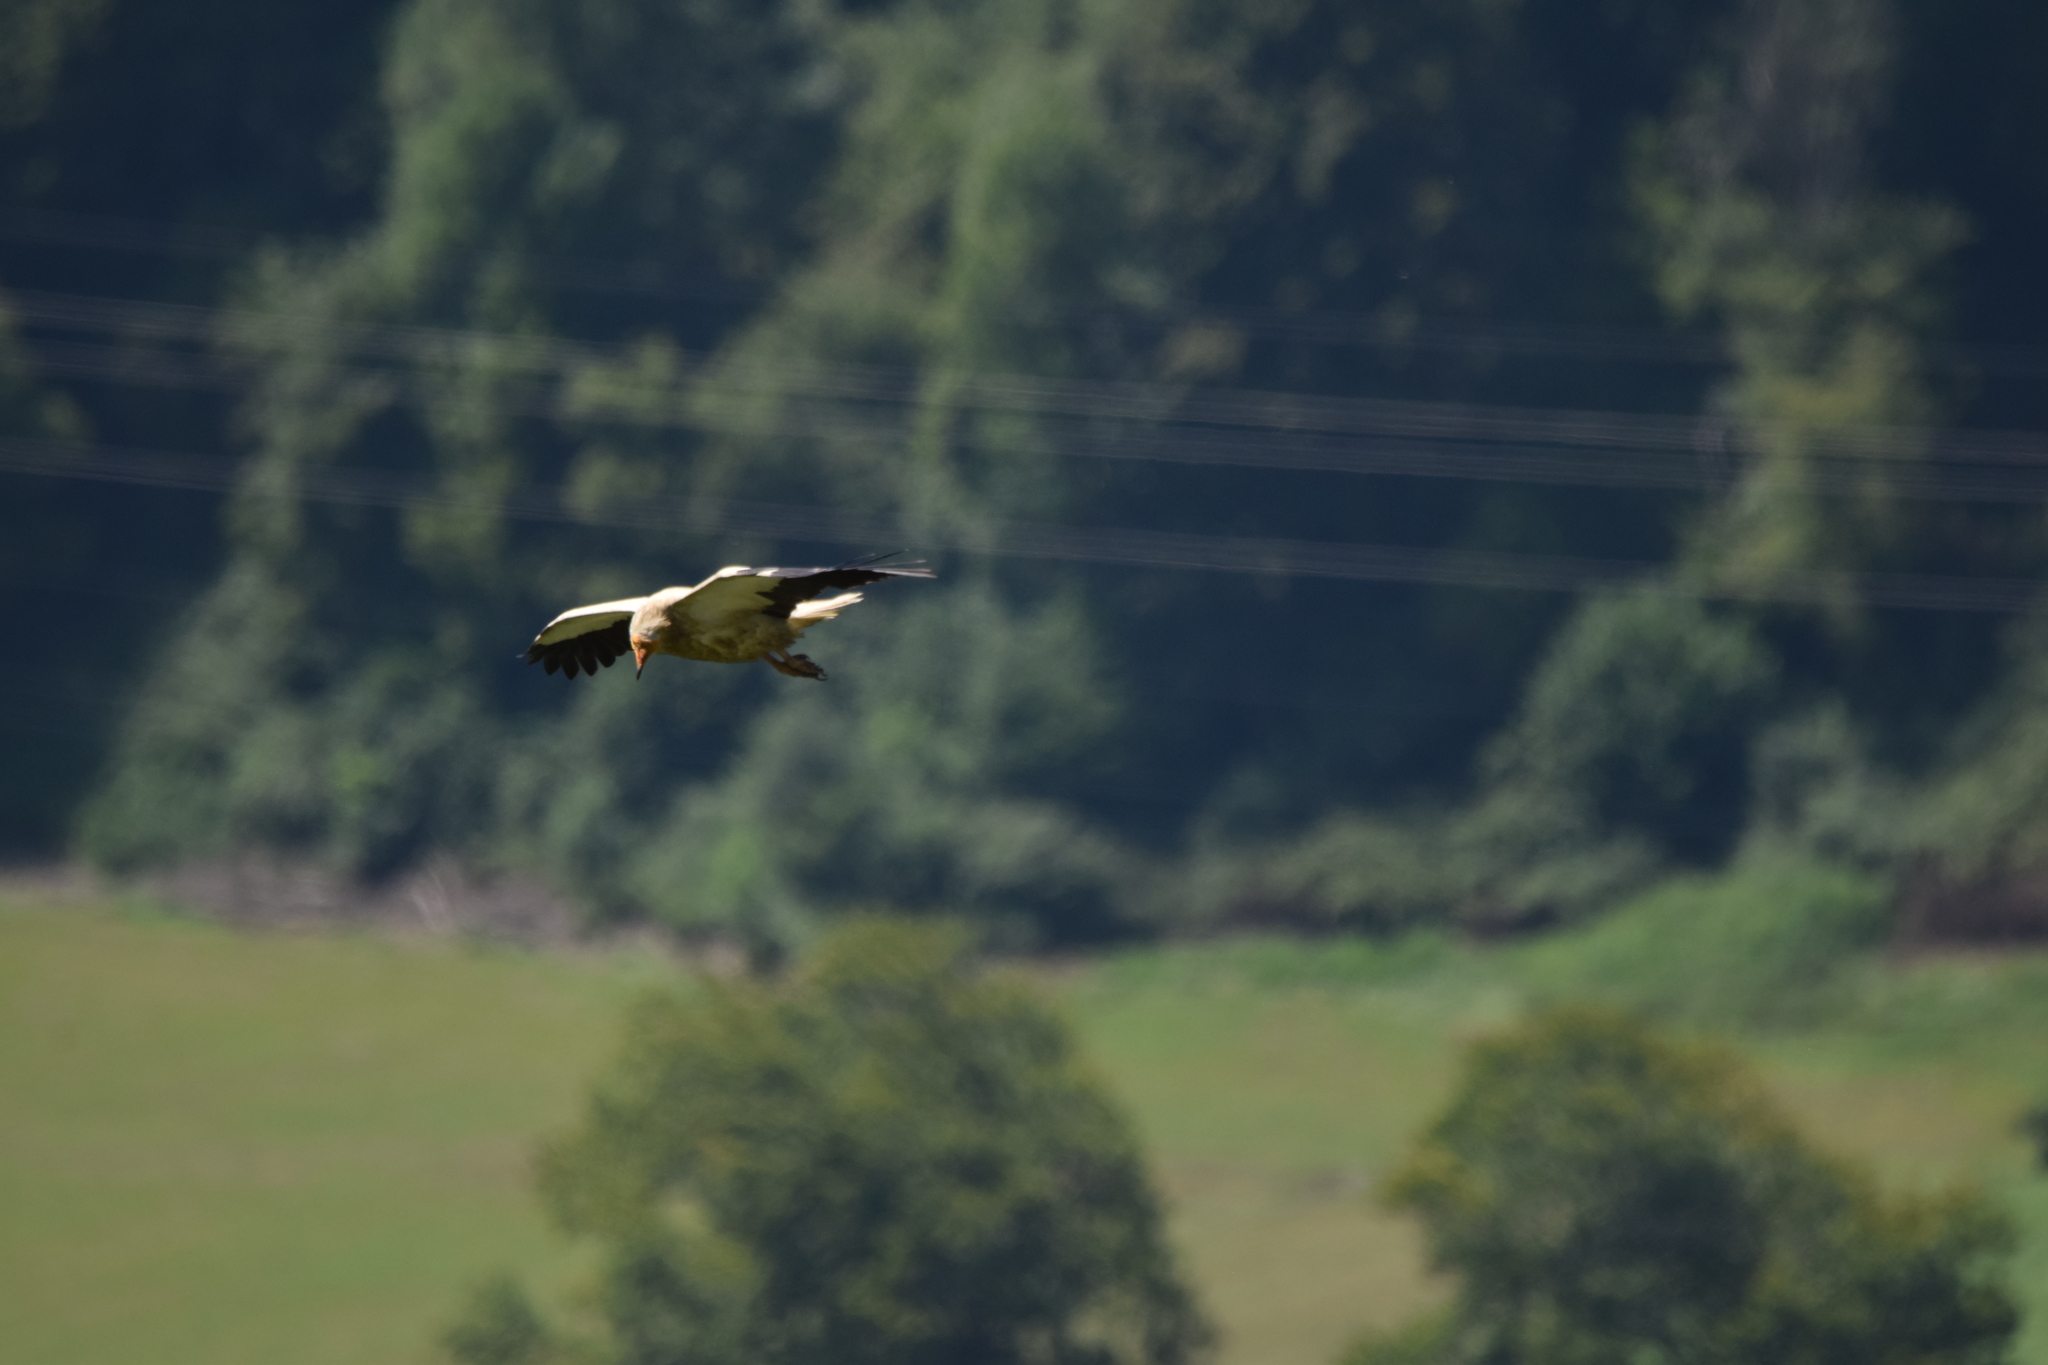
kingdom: Animalia
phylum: Chordata
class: Aves
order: Accipitriformes
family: Accipitridae
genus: Neophron
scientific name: Neophron percnopterus
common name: Egyptian vulture
